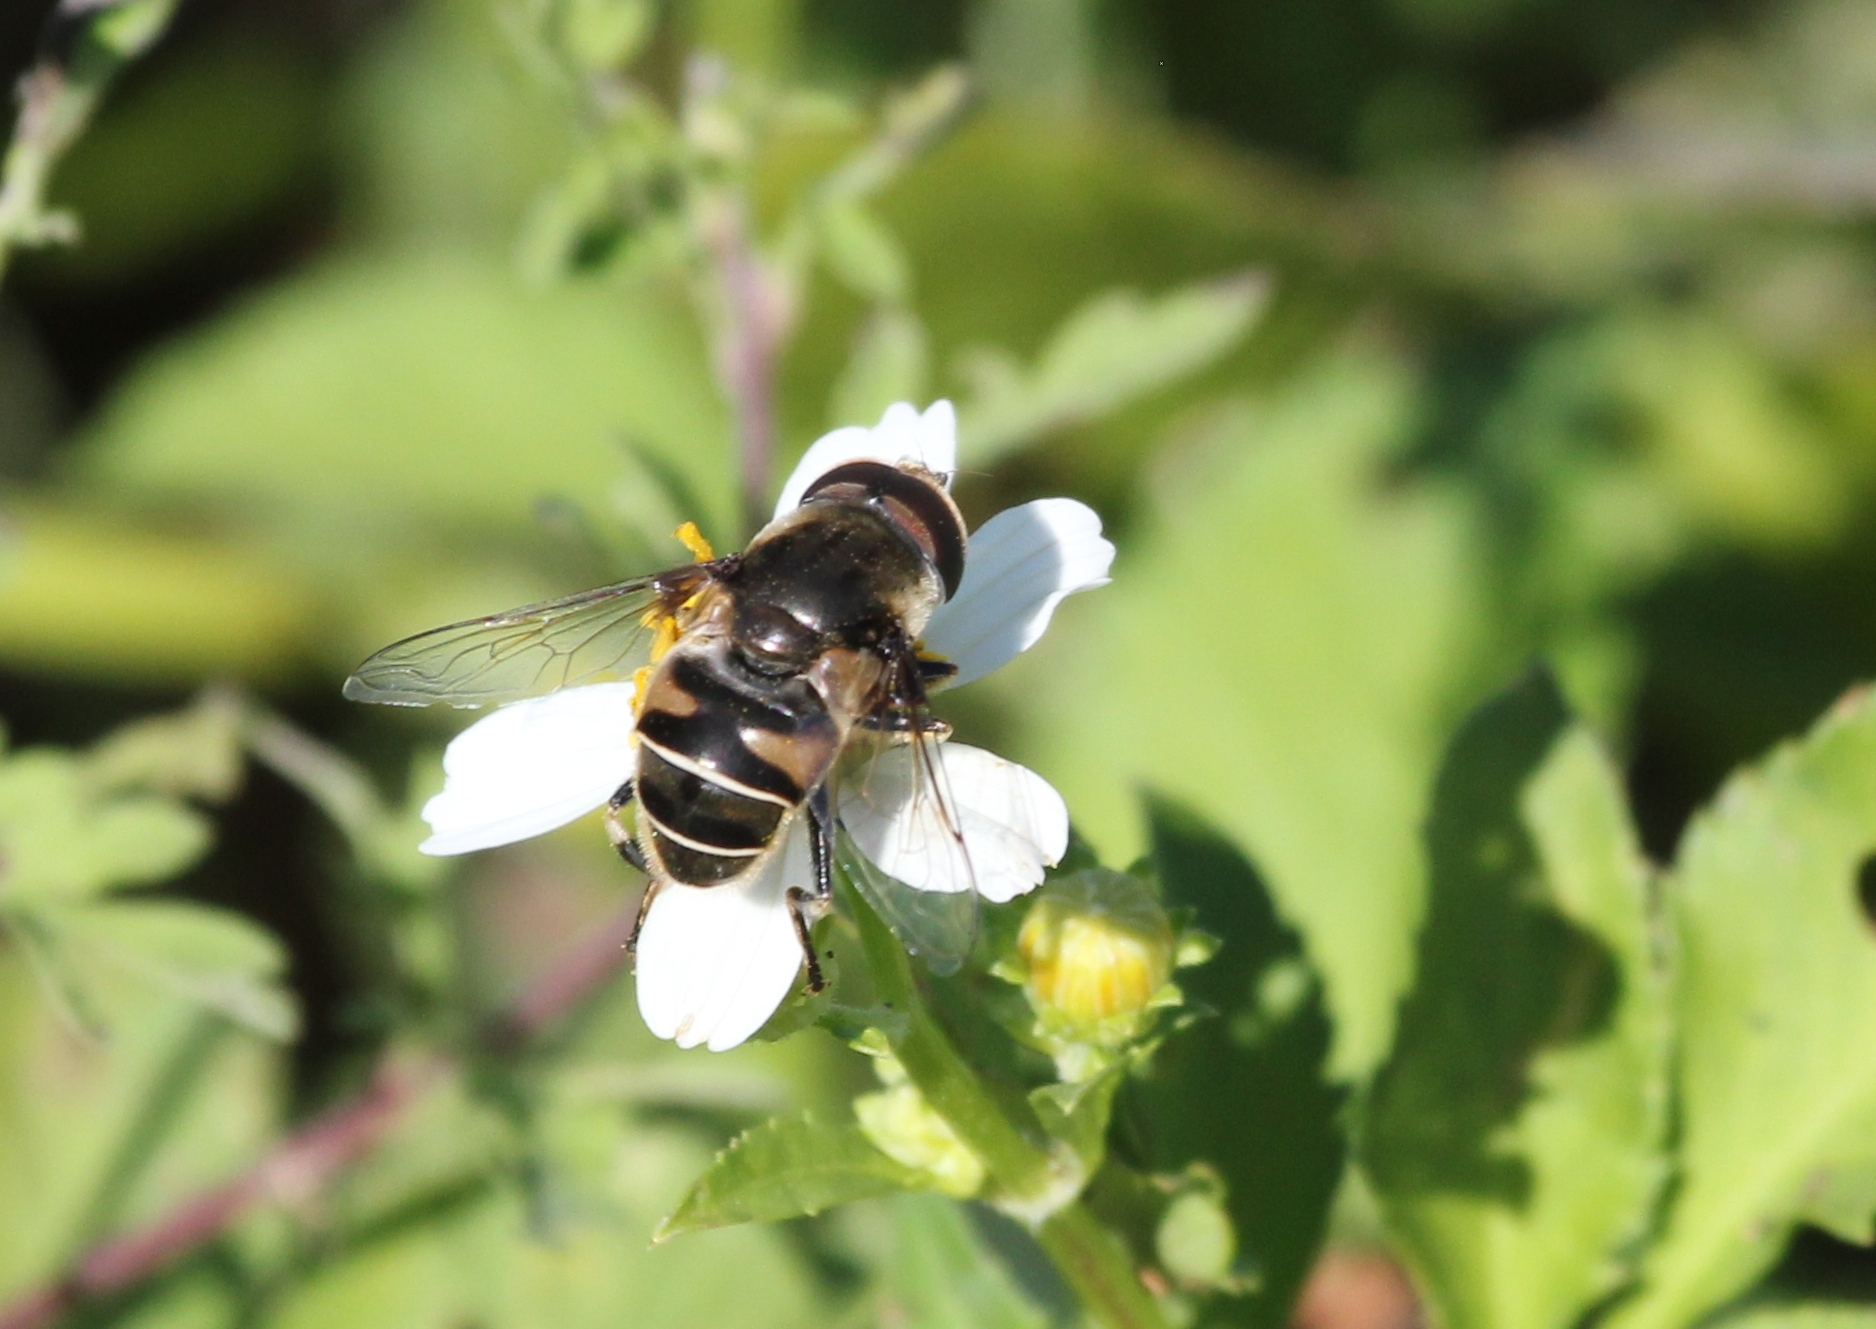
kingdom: Animalia
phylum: Arthropoda
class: Insecta
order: Diptera
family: Syrphidae
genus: Eristalis
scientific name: Eristalis dimidiata
